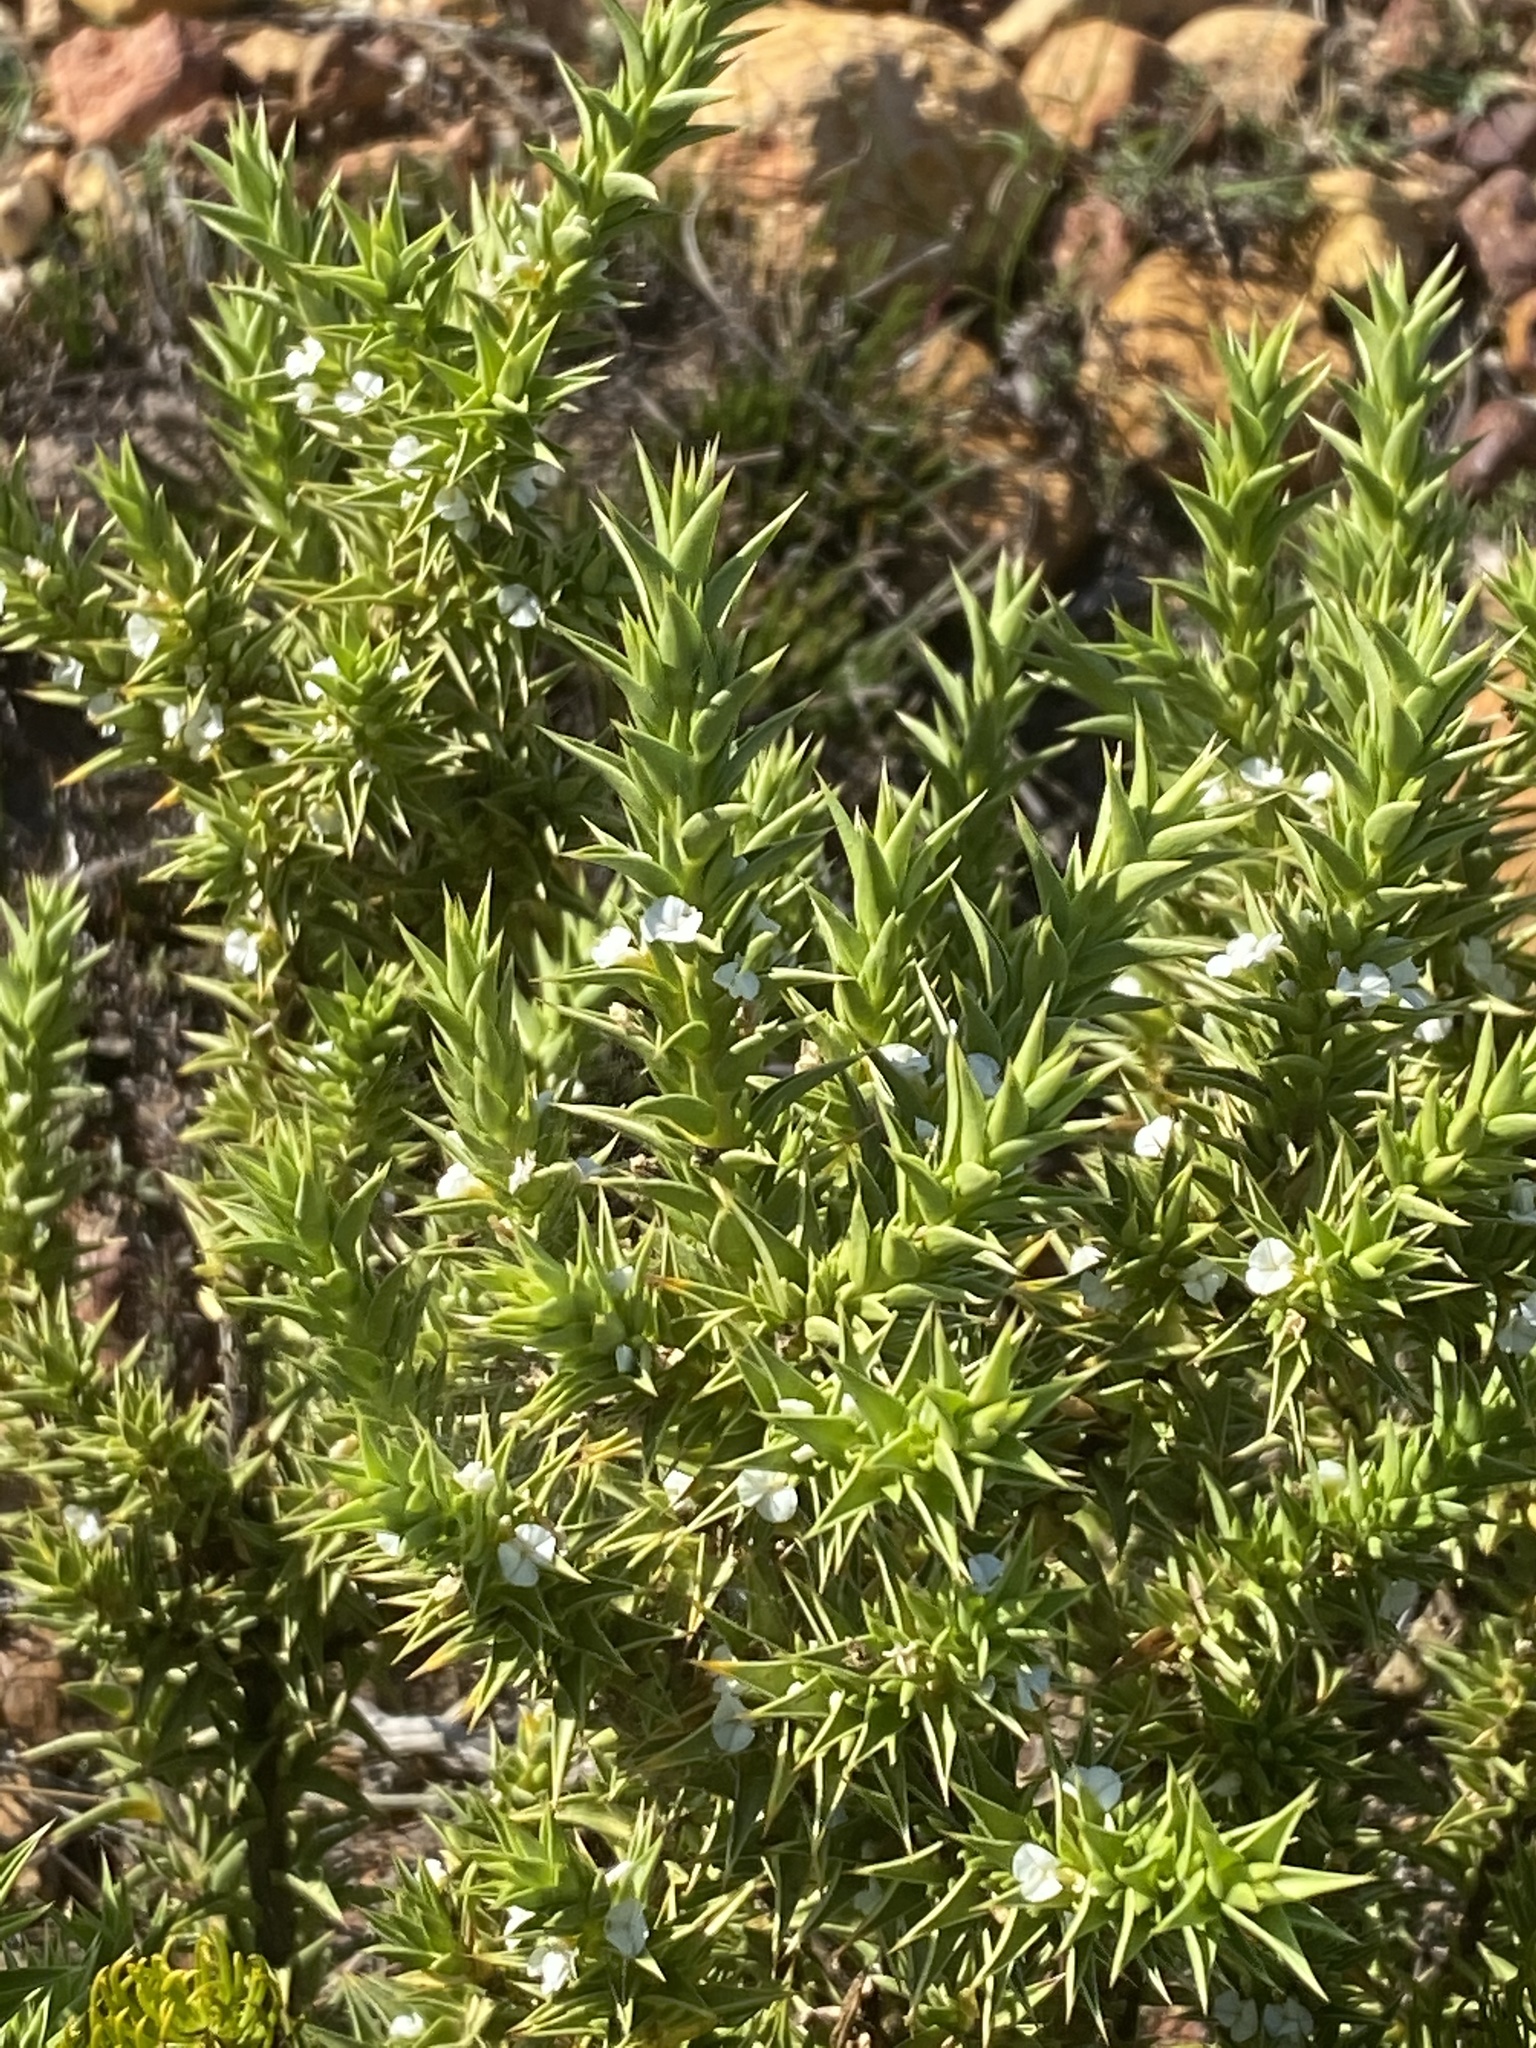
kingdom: Plantae
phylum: Tracheophyta
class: Magnoliopsida
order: Fabales
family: Polygalaceae
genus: Muraltia
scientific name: Muraltia cliffortiifolia
